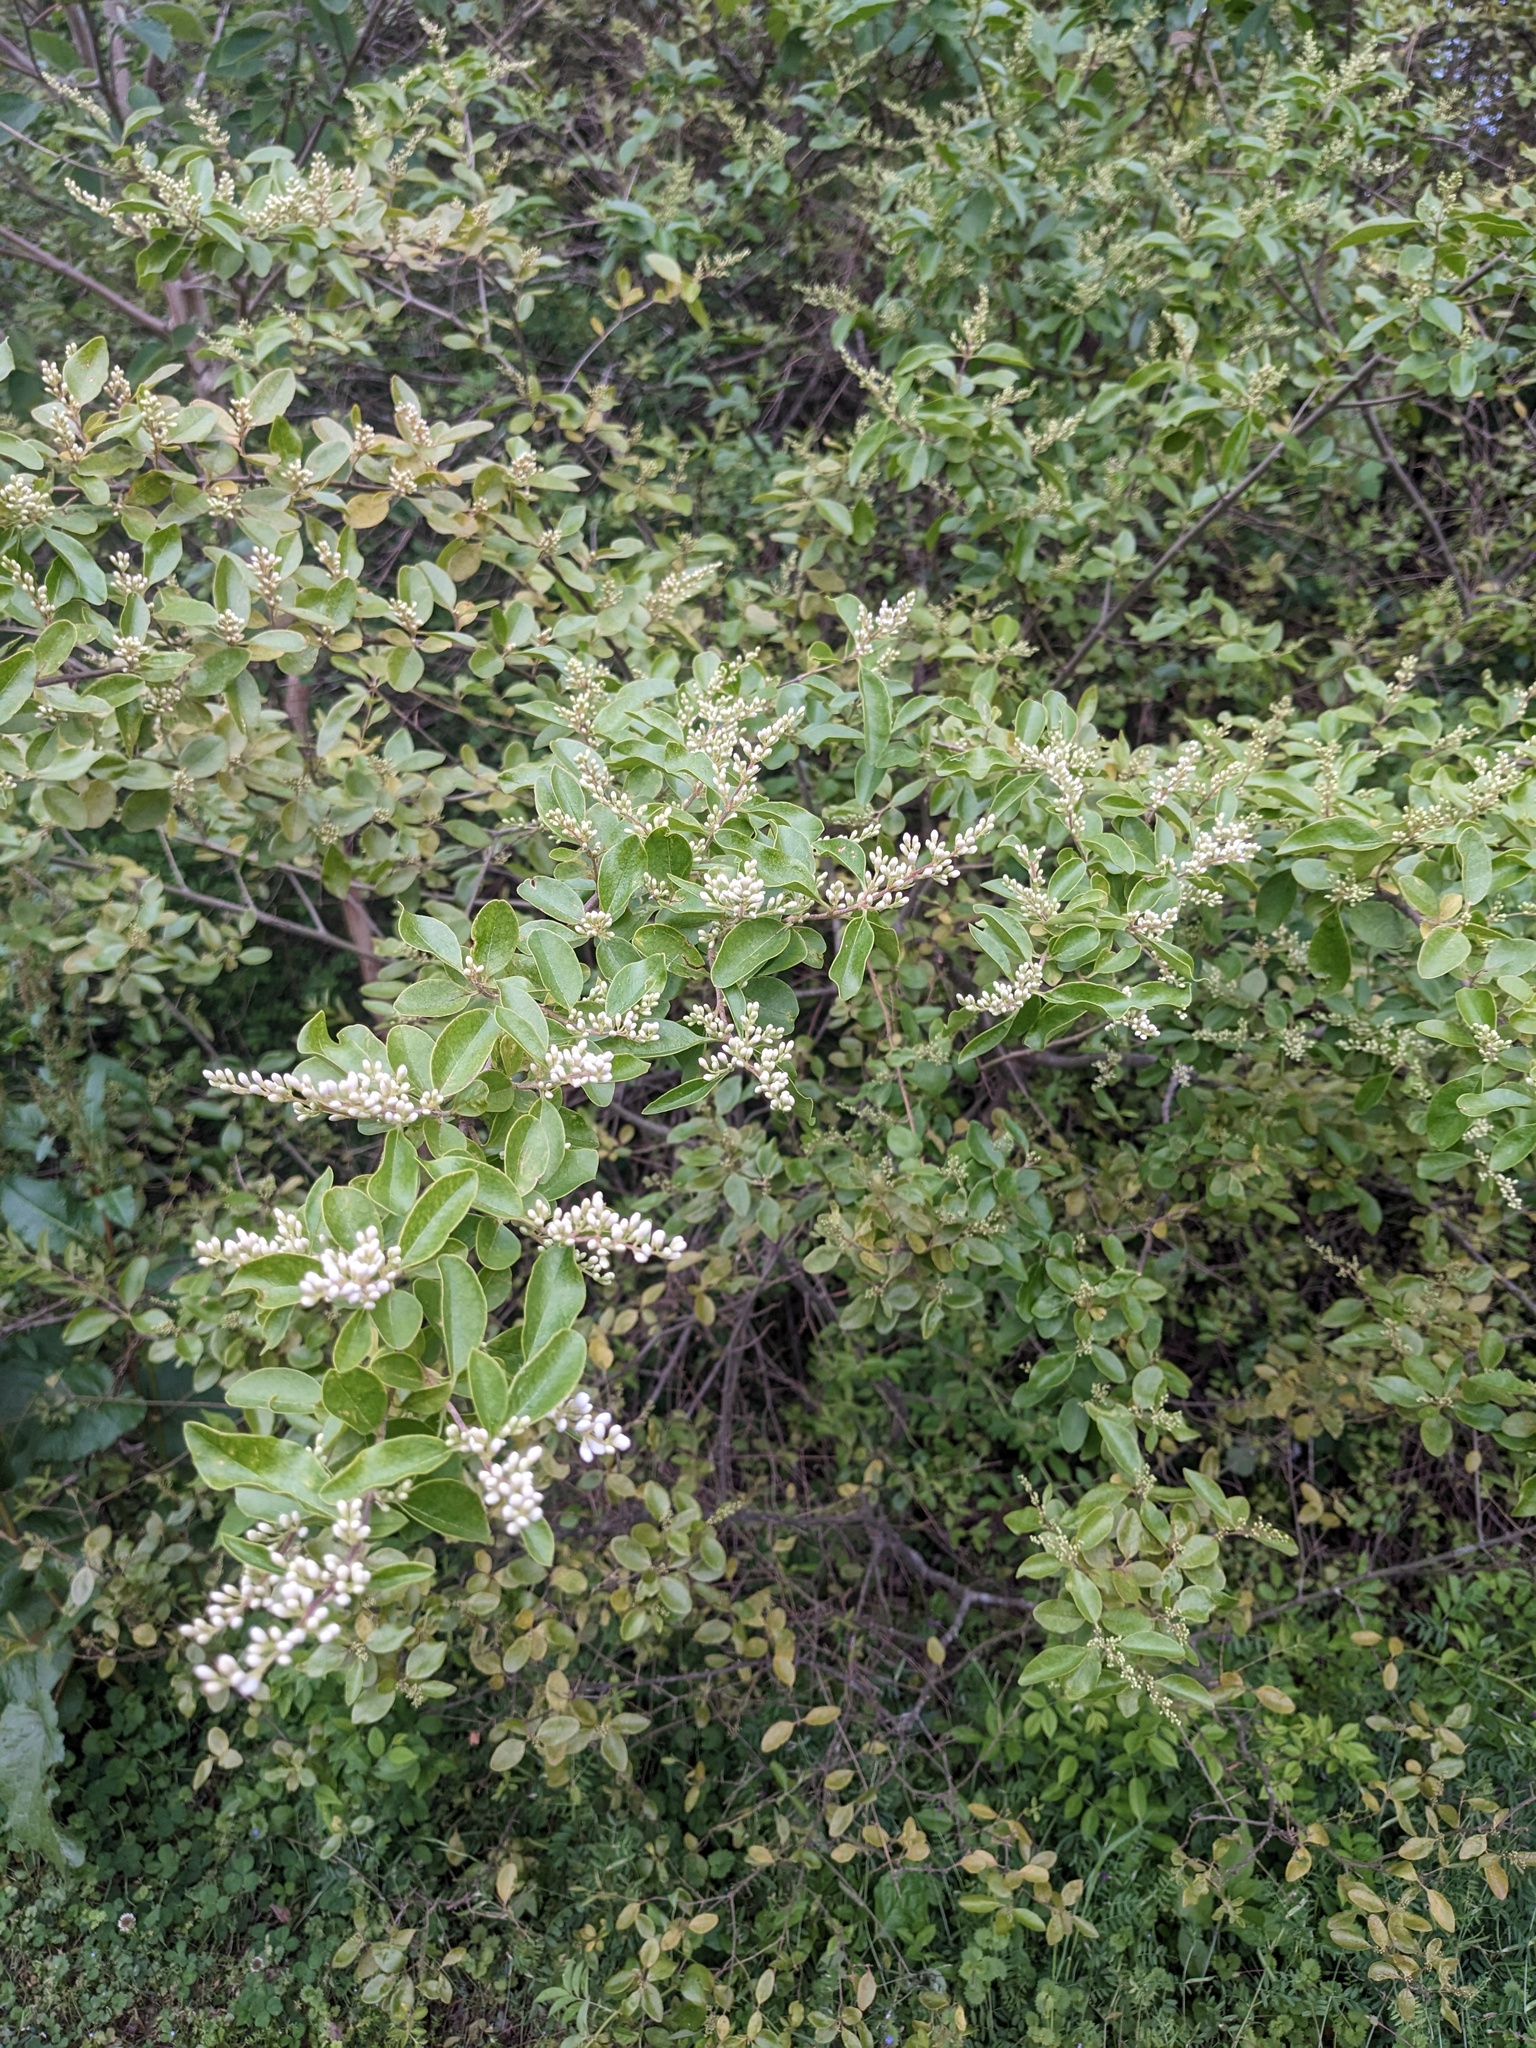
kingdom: Plantae
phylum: Tracheophyta
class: Magnoliopsida
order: Lamiales
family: Oleaceae
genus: Ligustrum
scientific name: Ligustrum sinense
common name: Chinese privet
